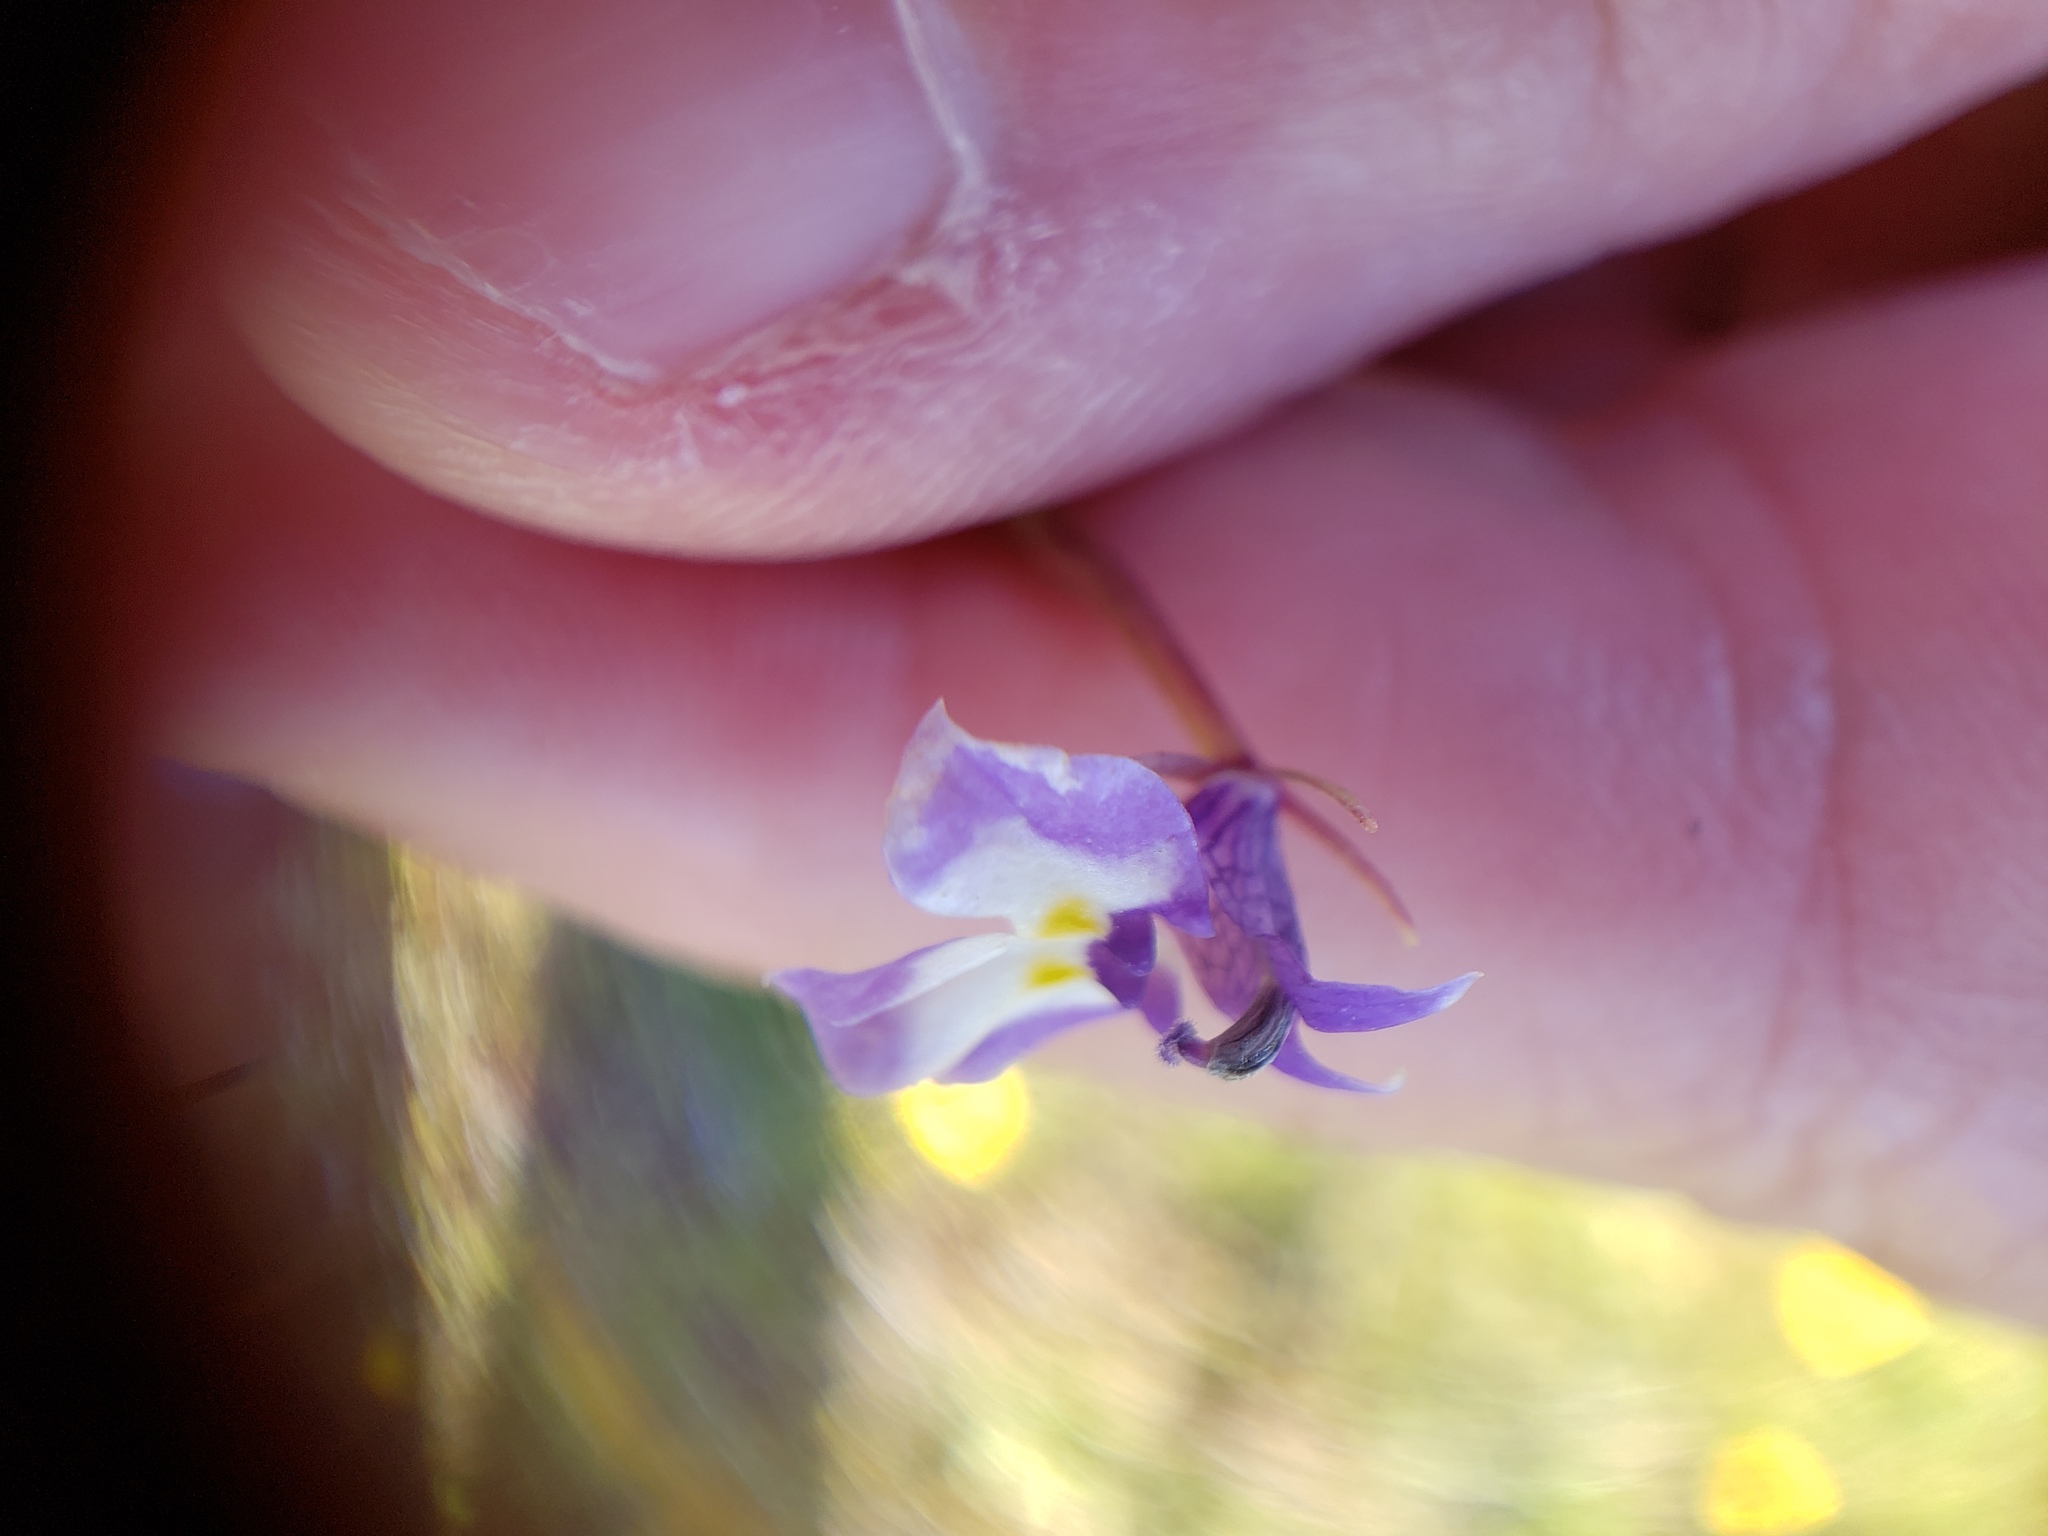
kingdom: Plantae
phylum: Tracheophyta
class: Magnoliopsida
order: Asterales
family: Campanulaceae
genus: Downingia
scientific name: Downingia bicornuta
